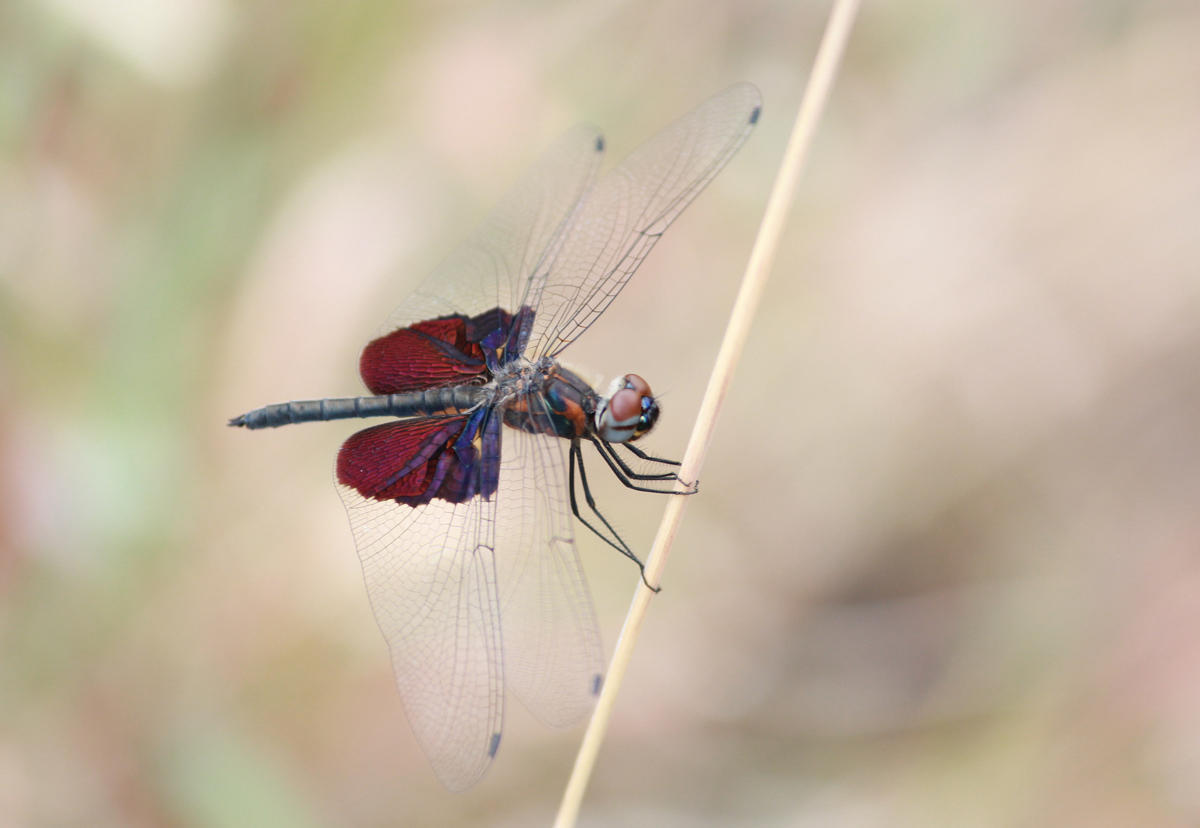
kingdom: Animalia
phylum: Arthropoda
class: Insecta
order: Odonata
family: Libellulidae
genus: Rhyothemis
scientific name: Rhyothemis semihyalina
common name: Phantom flutterer
